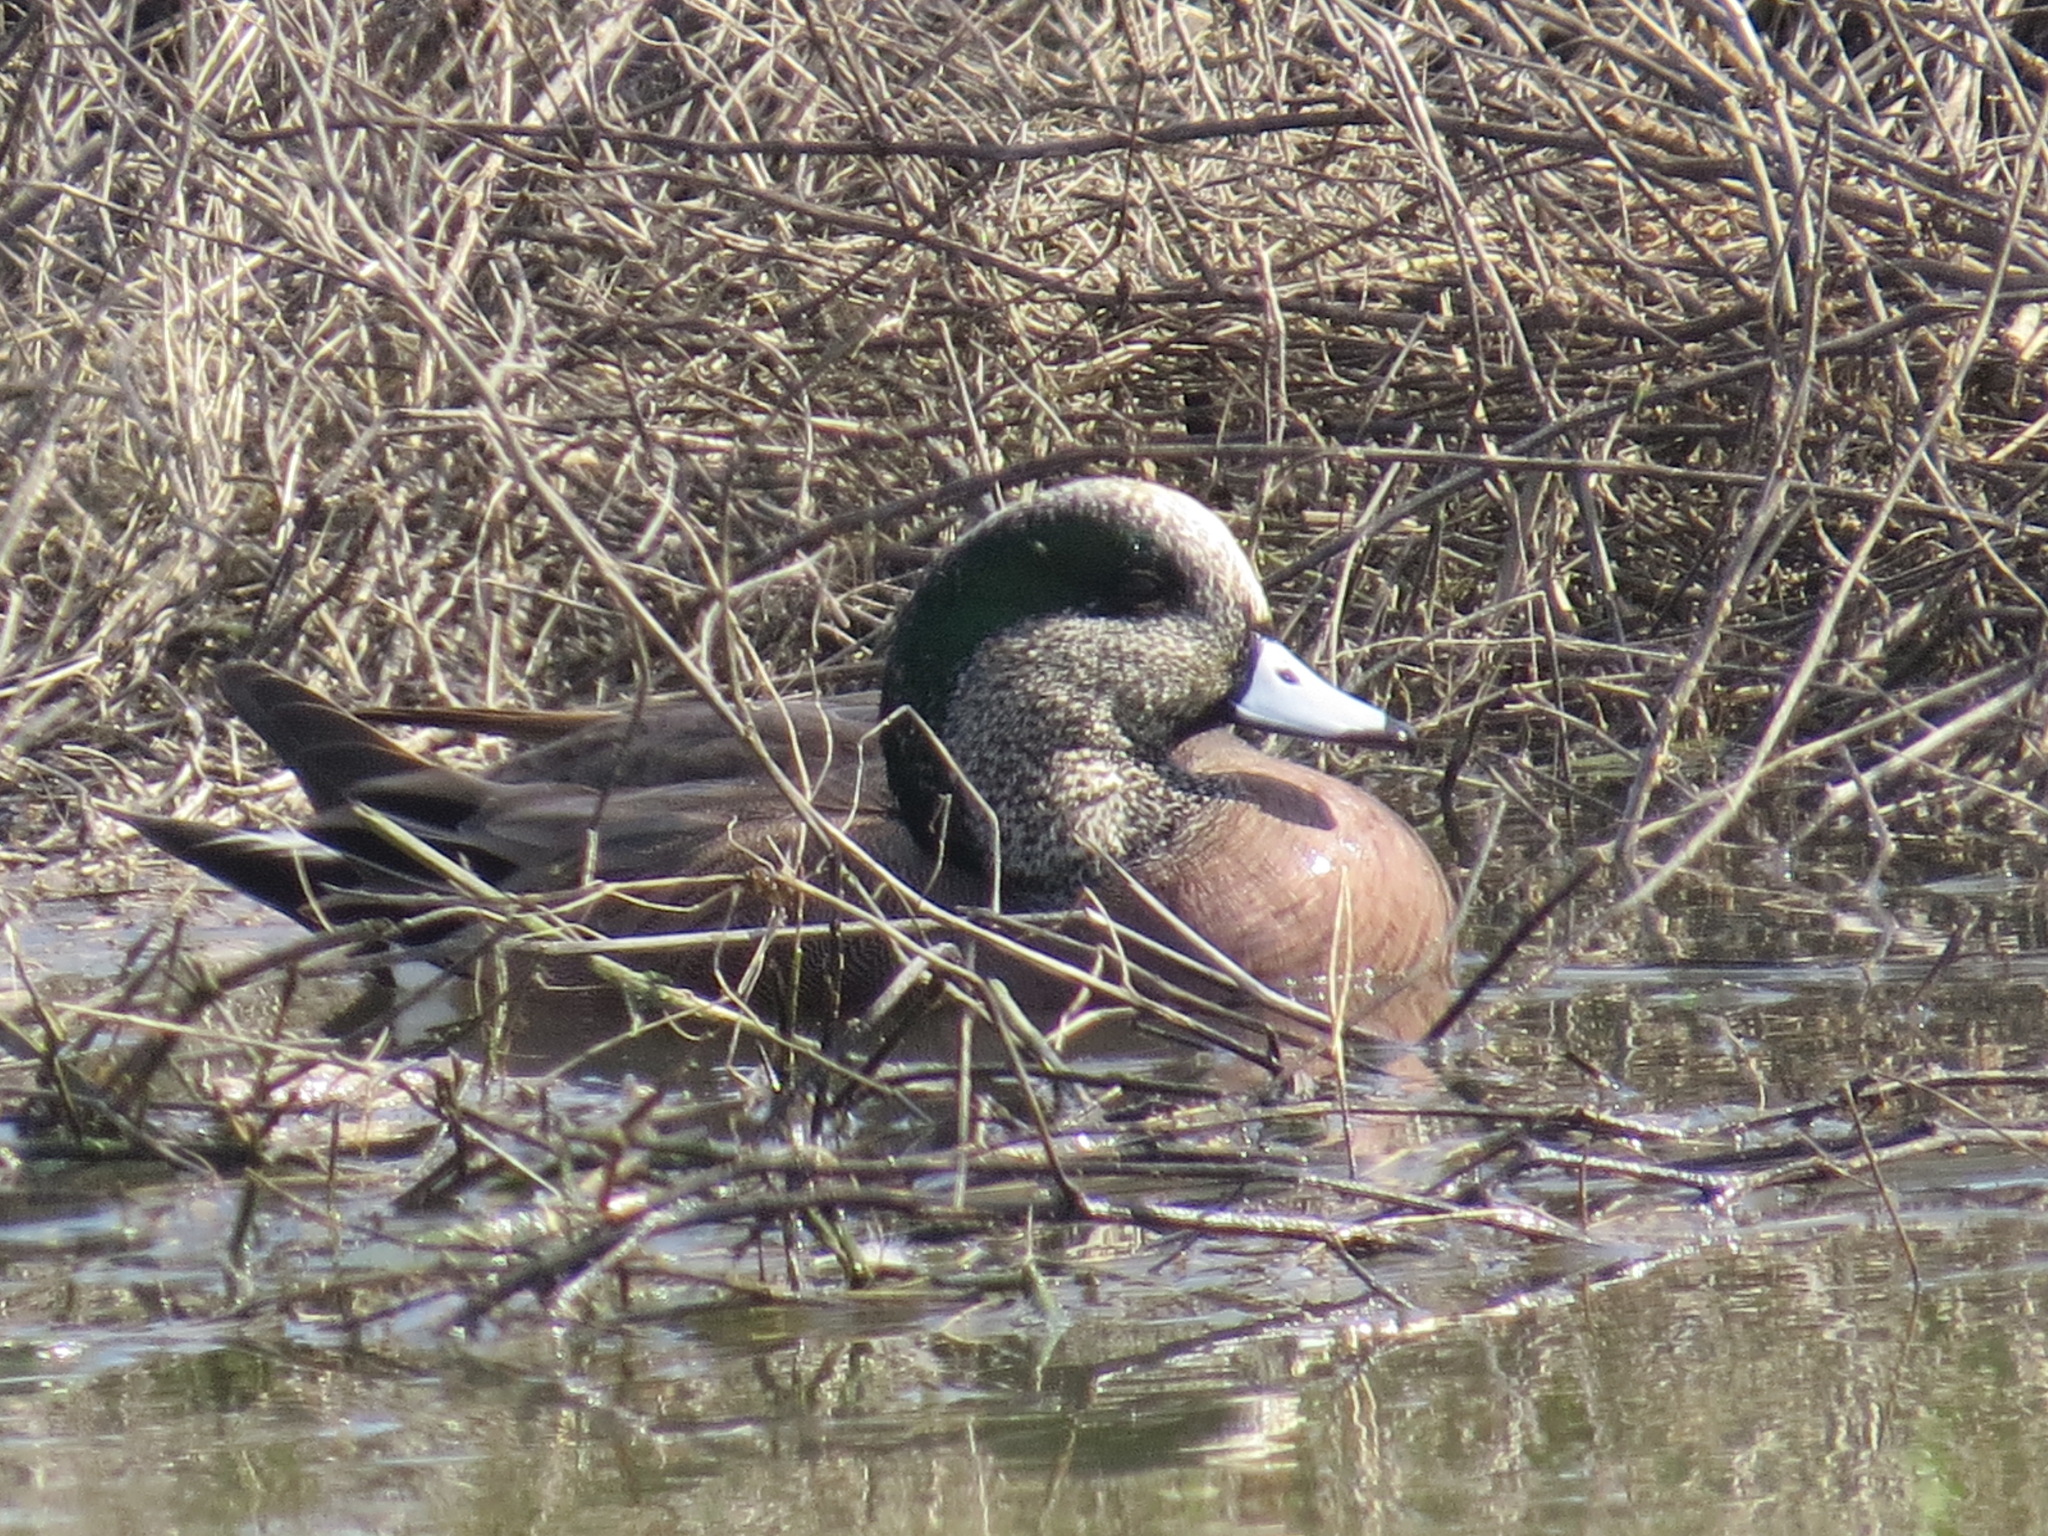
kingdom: Animalia
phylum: Chordata
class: Aves
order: Anseriformes
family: Anatidae
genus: Mareca
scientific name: Mareca americana
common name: American wigeon
